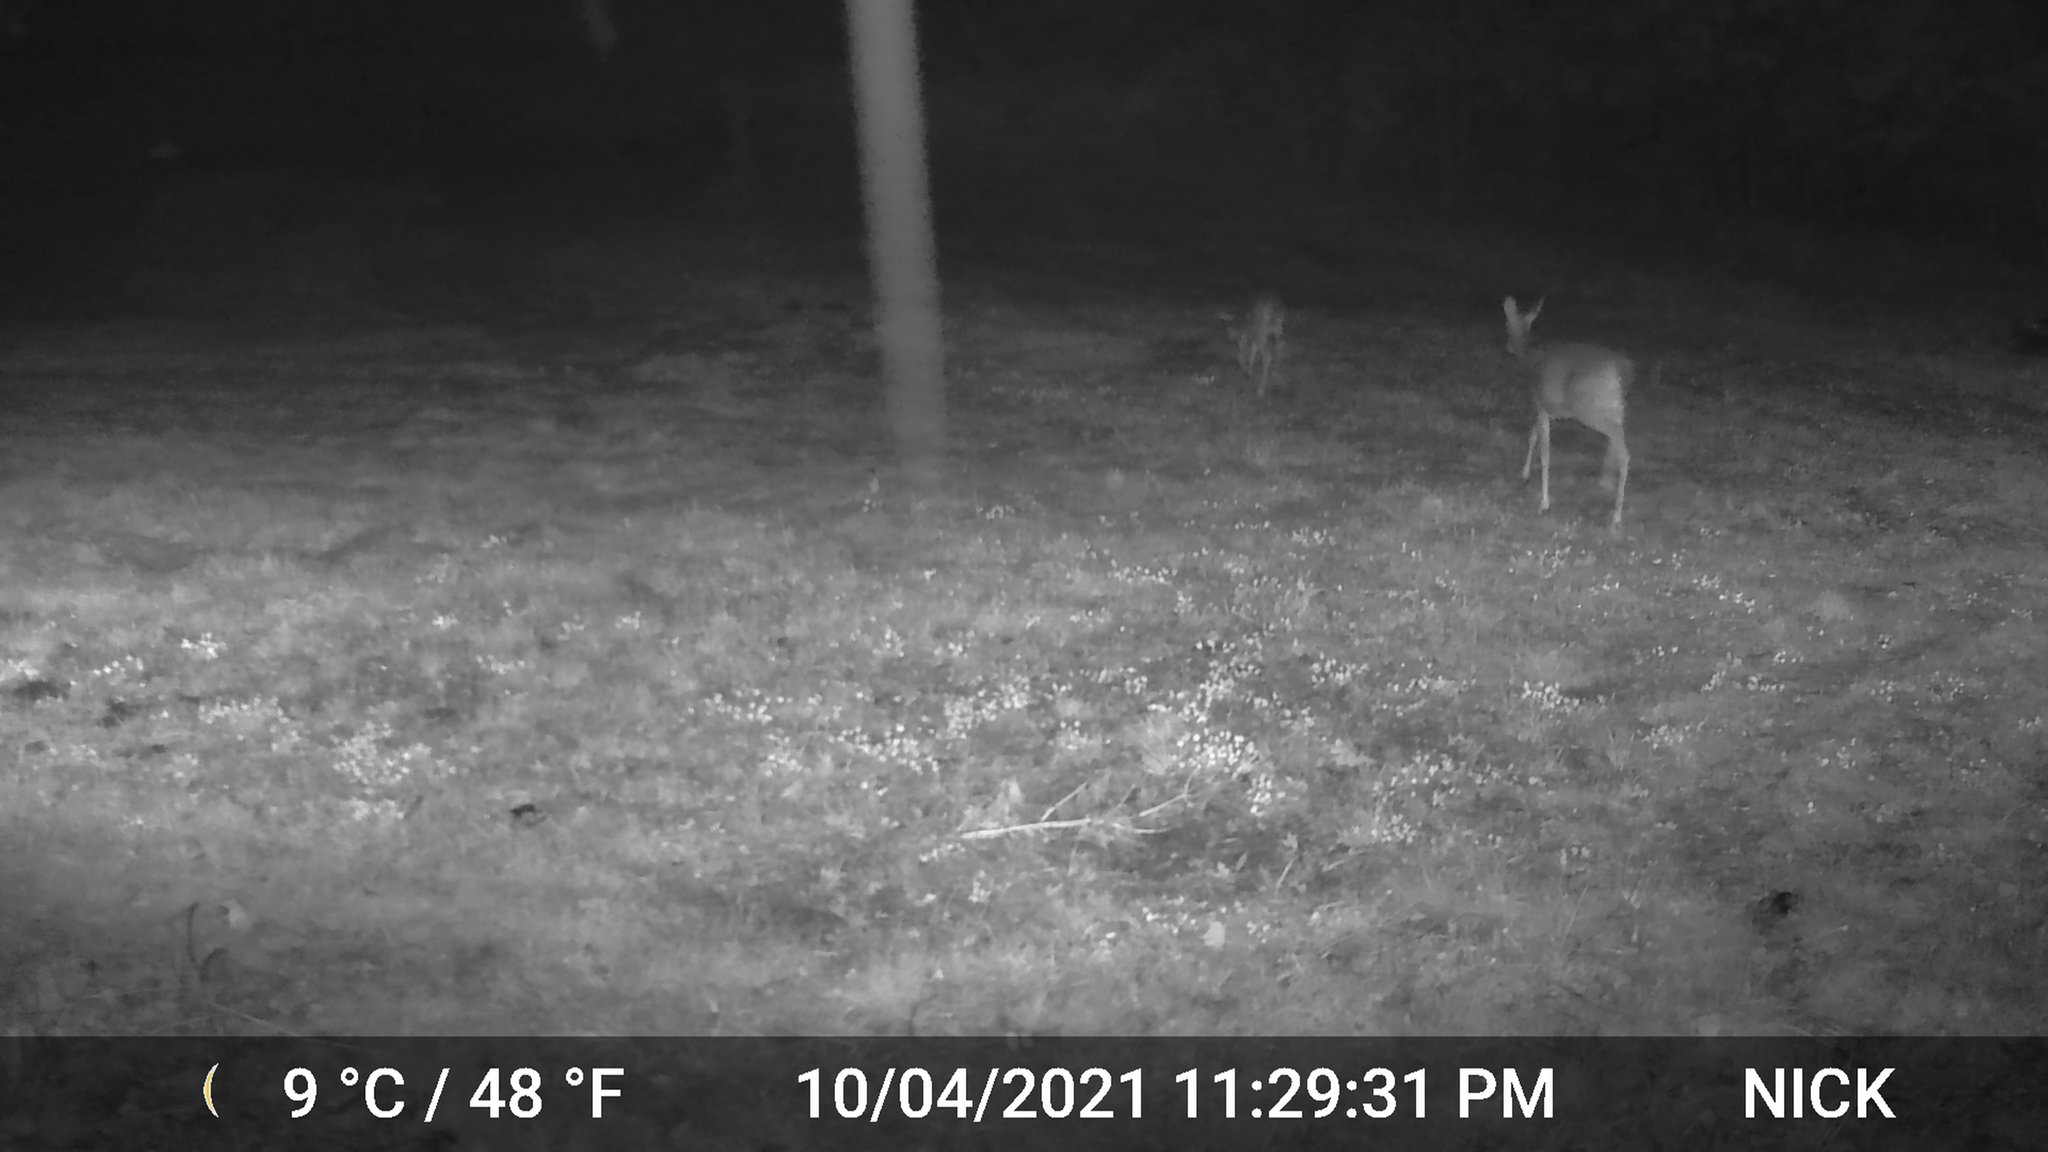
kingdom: Animalia
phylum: Chordata
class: Mammalia
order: Artiodactyla
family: Cervidae
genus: Odocoileus
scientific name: Odocoileus virginianus
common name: White-tailed deer
